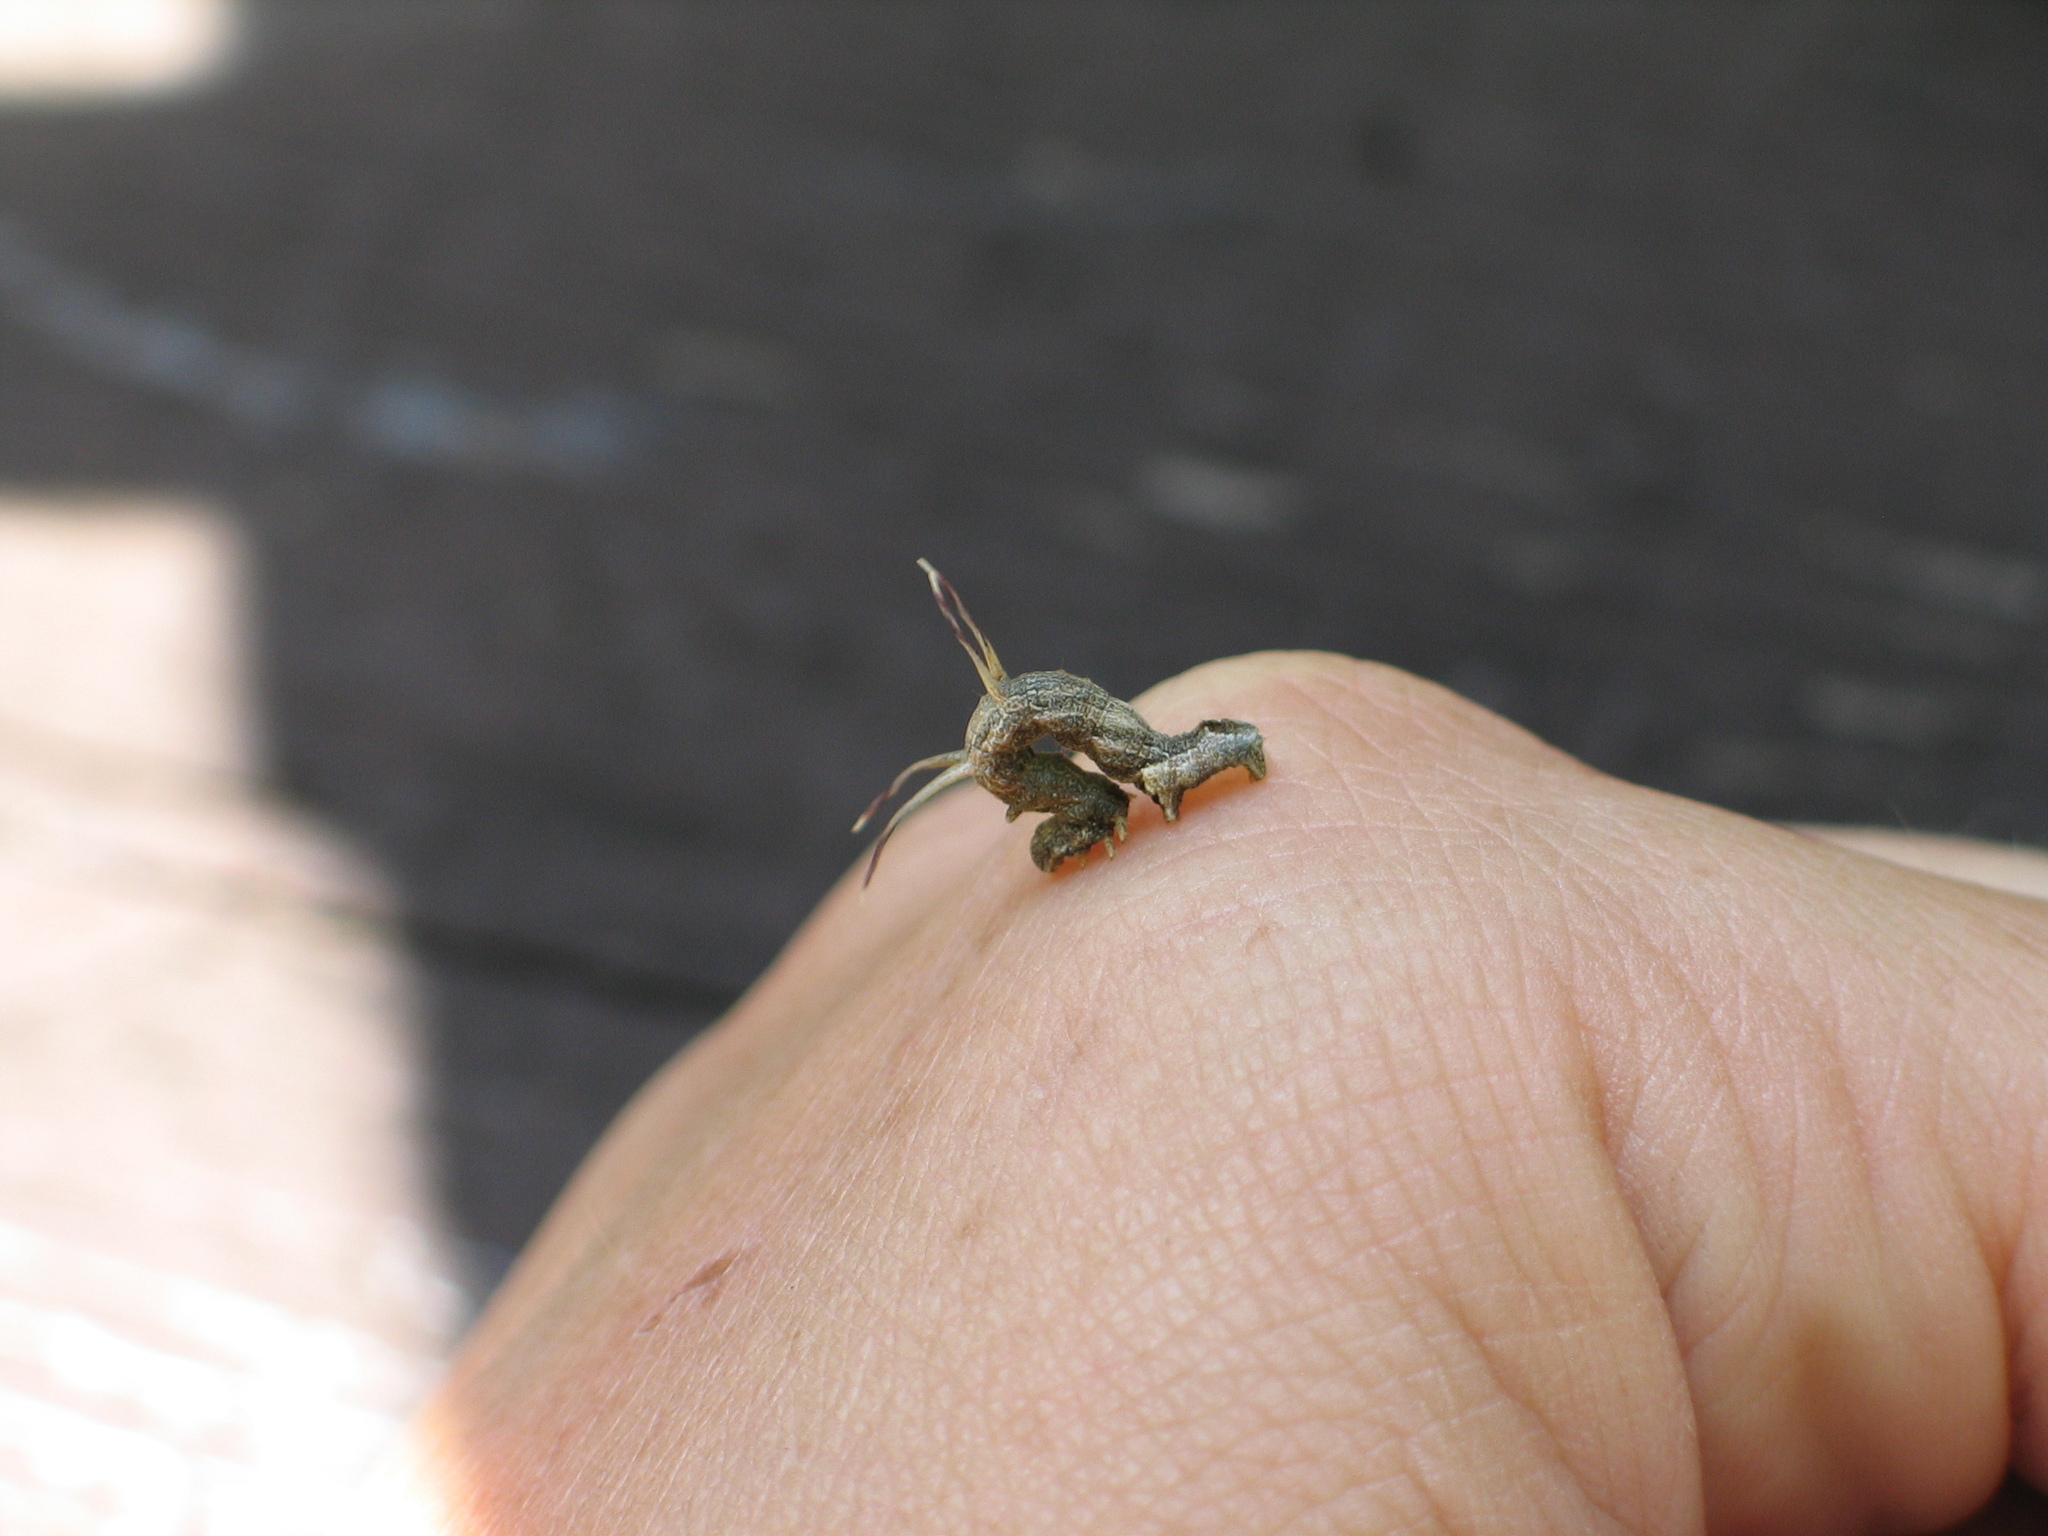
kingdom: Animalia
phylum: Arthropoda
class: Insecta
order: Lepidoptera
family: Geometridae
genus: Nematocampa
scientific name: Nematocampa resistaria
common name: Horned spanworm moth
